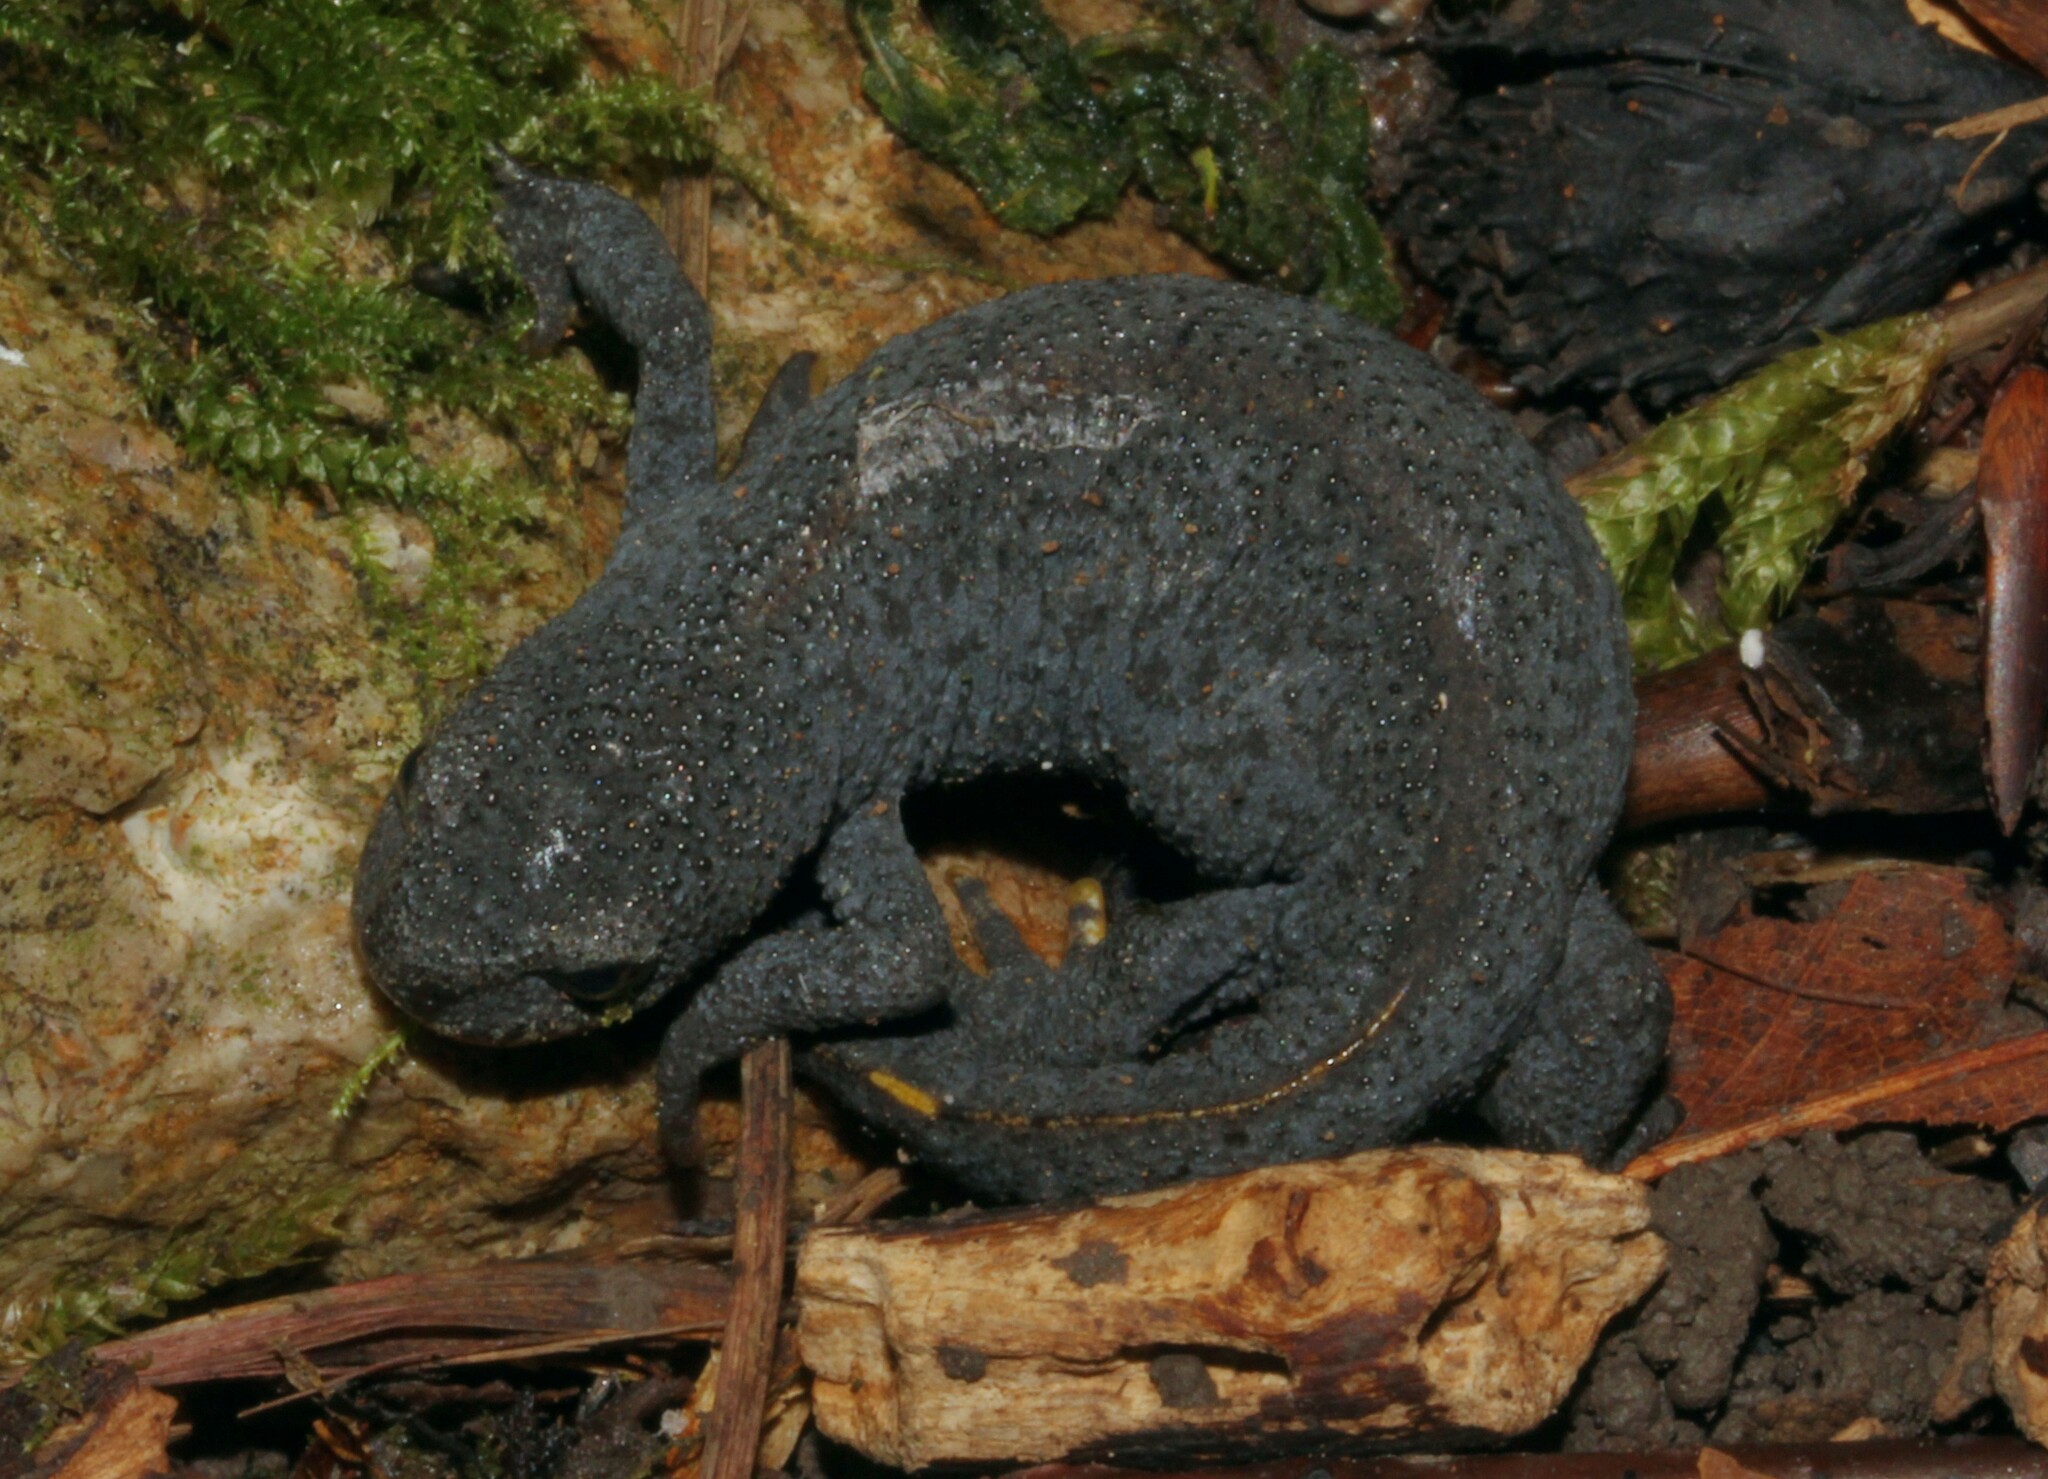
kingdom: Animalia
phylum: Chordata
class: Amphibia
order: Caudata
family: Salamandridae
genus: Ichthyosaura
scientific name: Ichthyosaura alpestris
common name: Alpine newt
